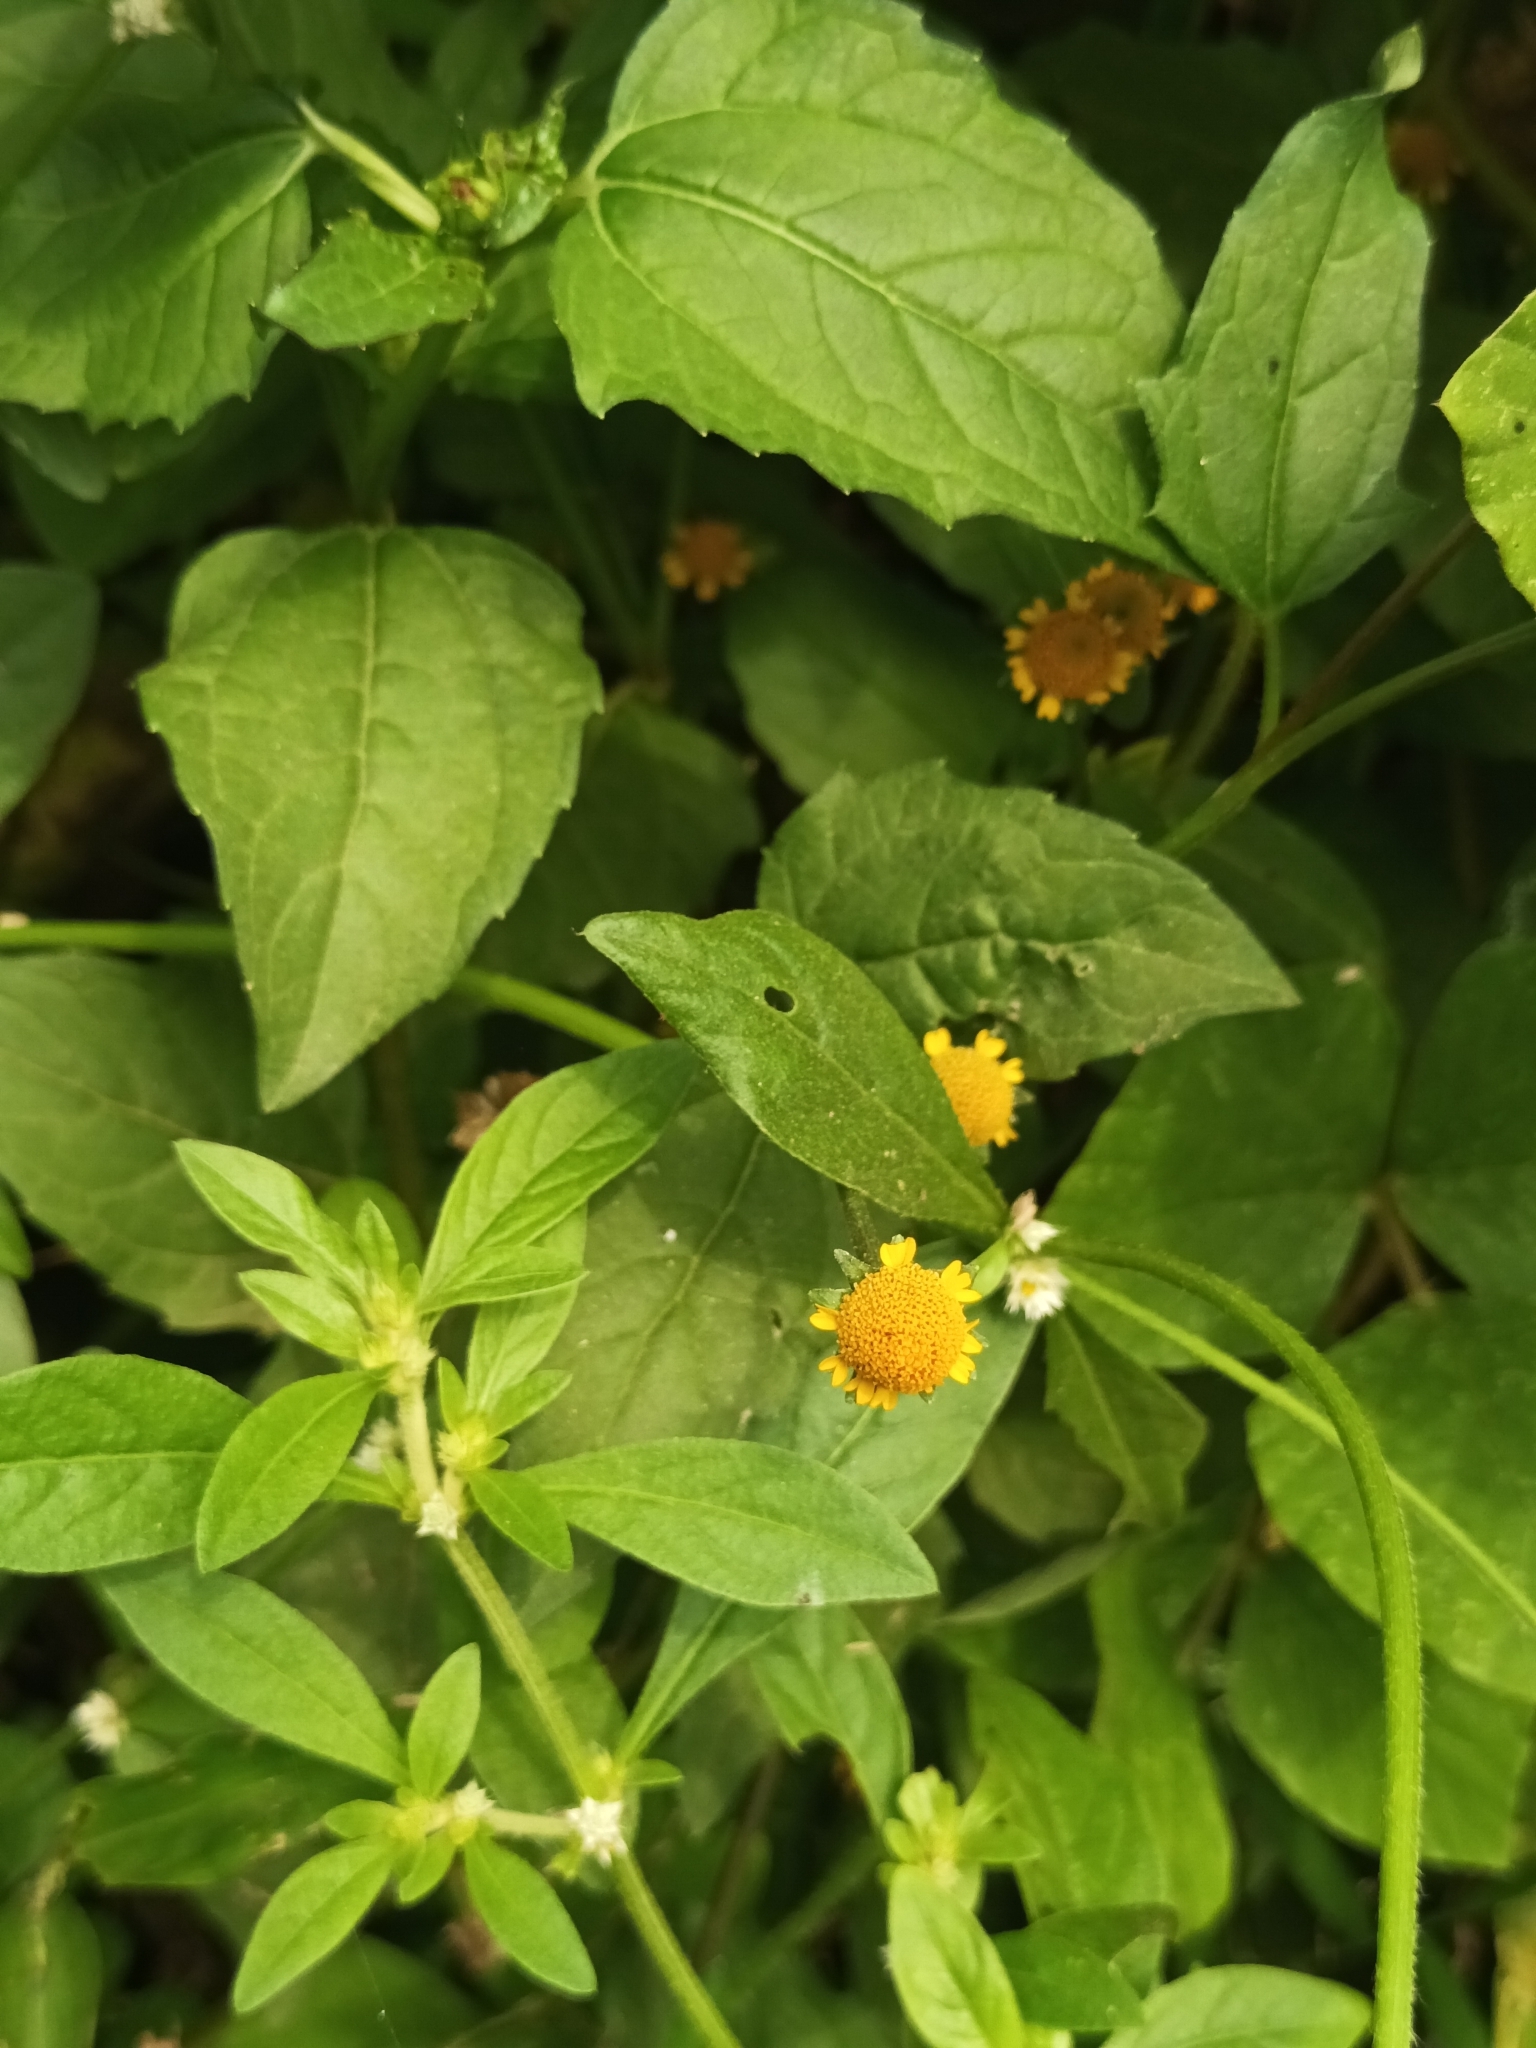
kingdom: Plantae
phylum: Tracheophyta
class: Magnoliopsida
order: Asterales
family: Asteraceae
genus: Acmella
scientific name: Acmella uliginosa
